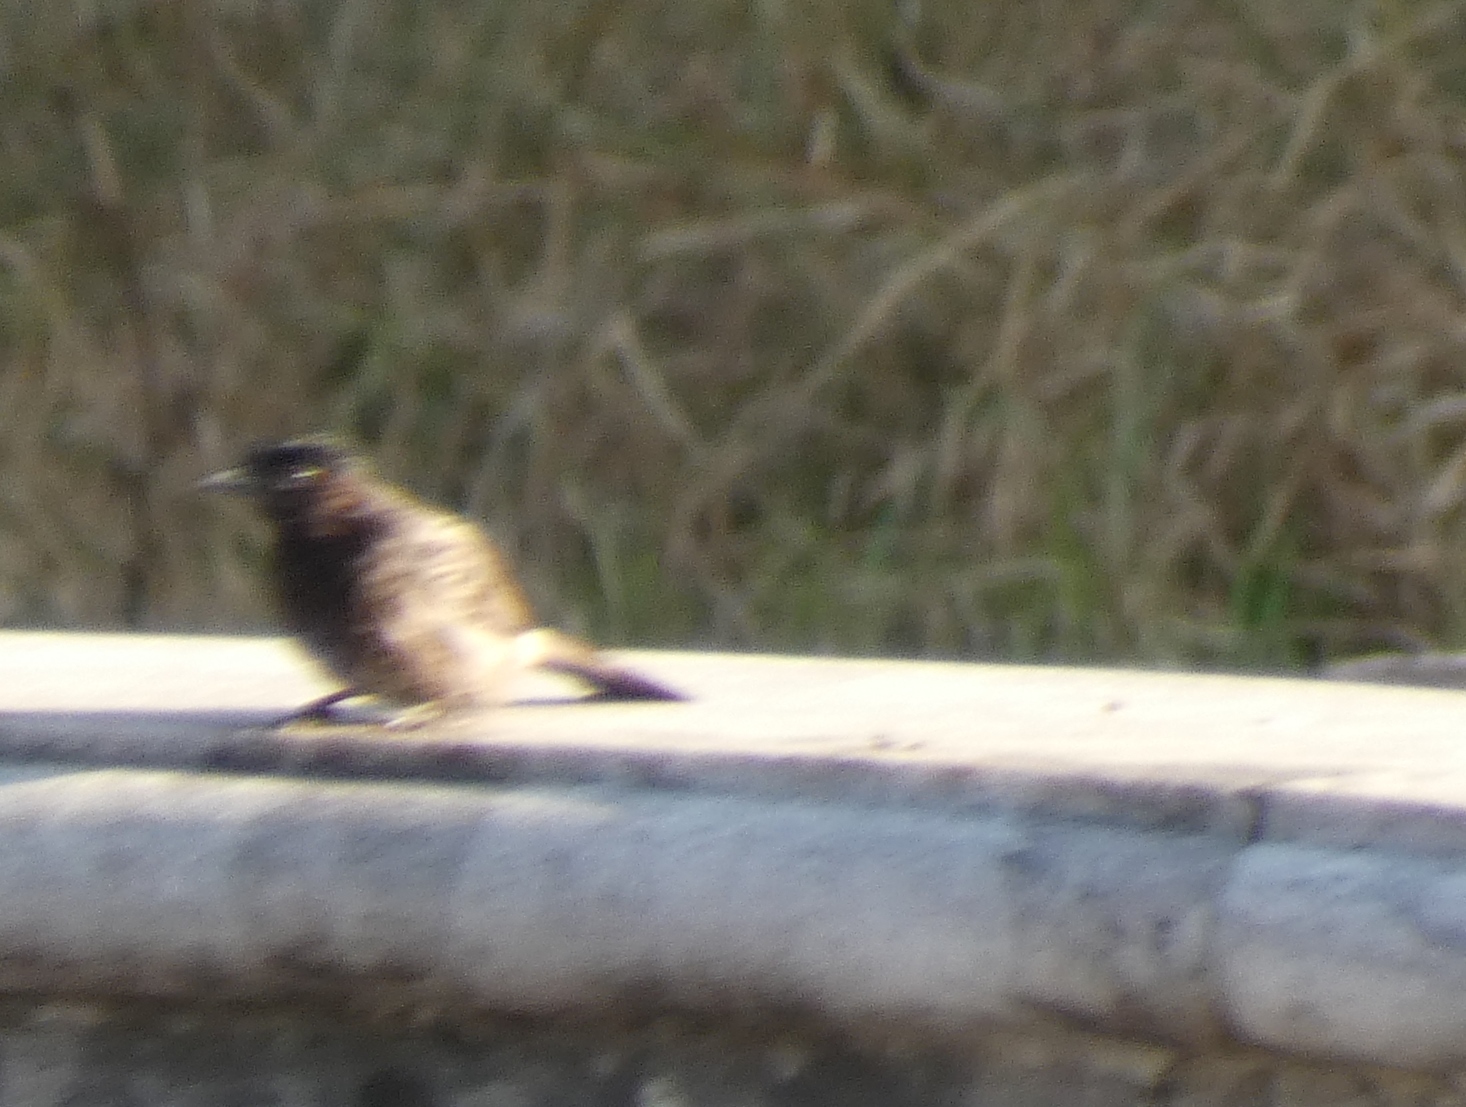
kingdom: Animalia
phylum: Chordata
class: Aves
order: Passeriformes
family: Pycnonotidae
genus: Pycnonotus
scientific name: Pycnonotus cafer
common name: Red-vented bulbul
